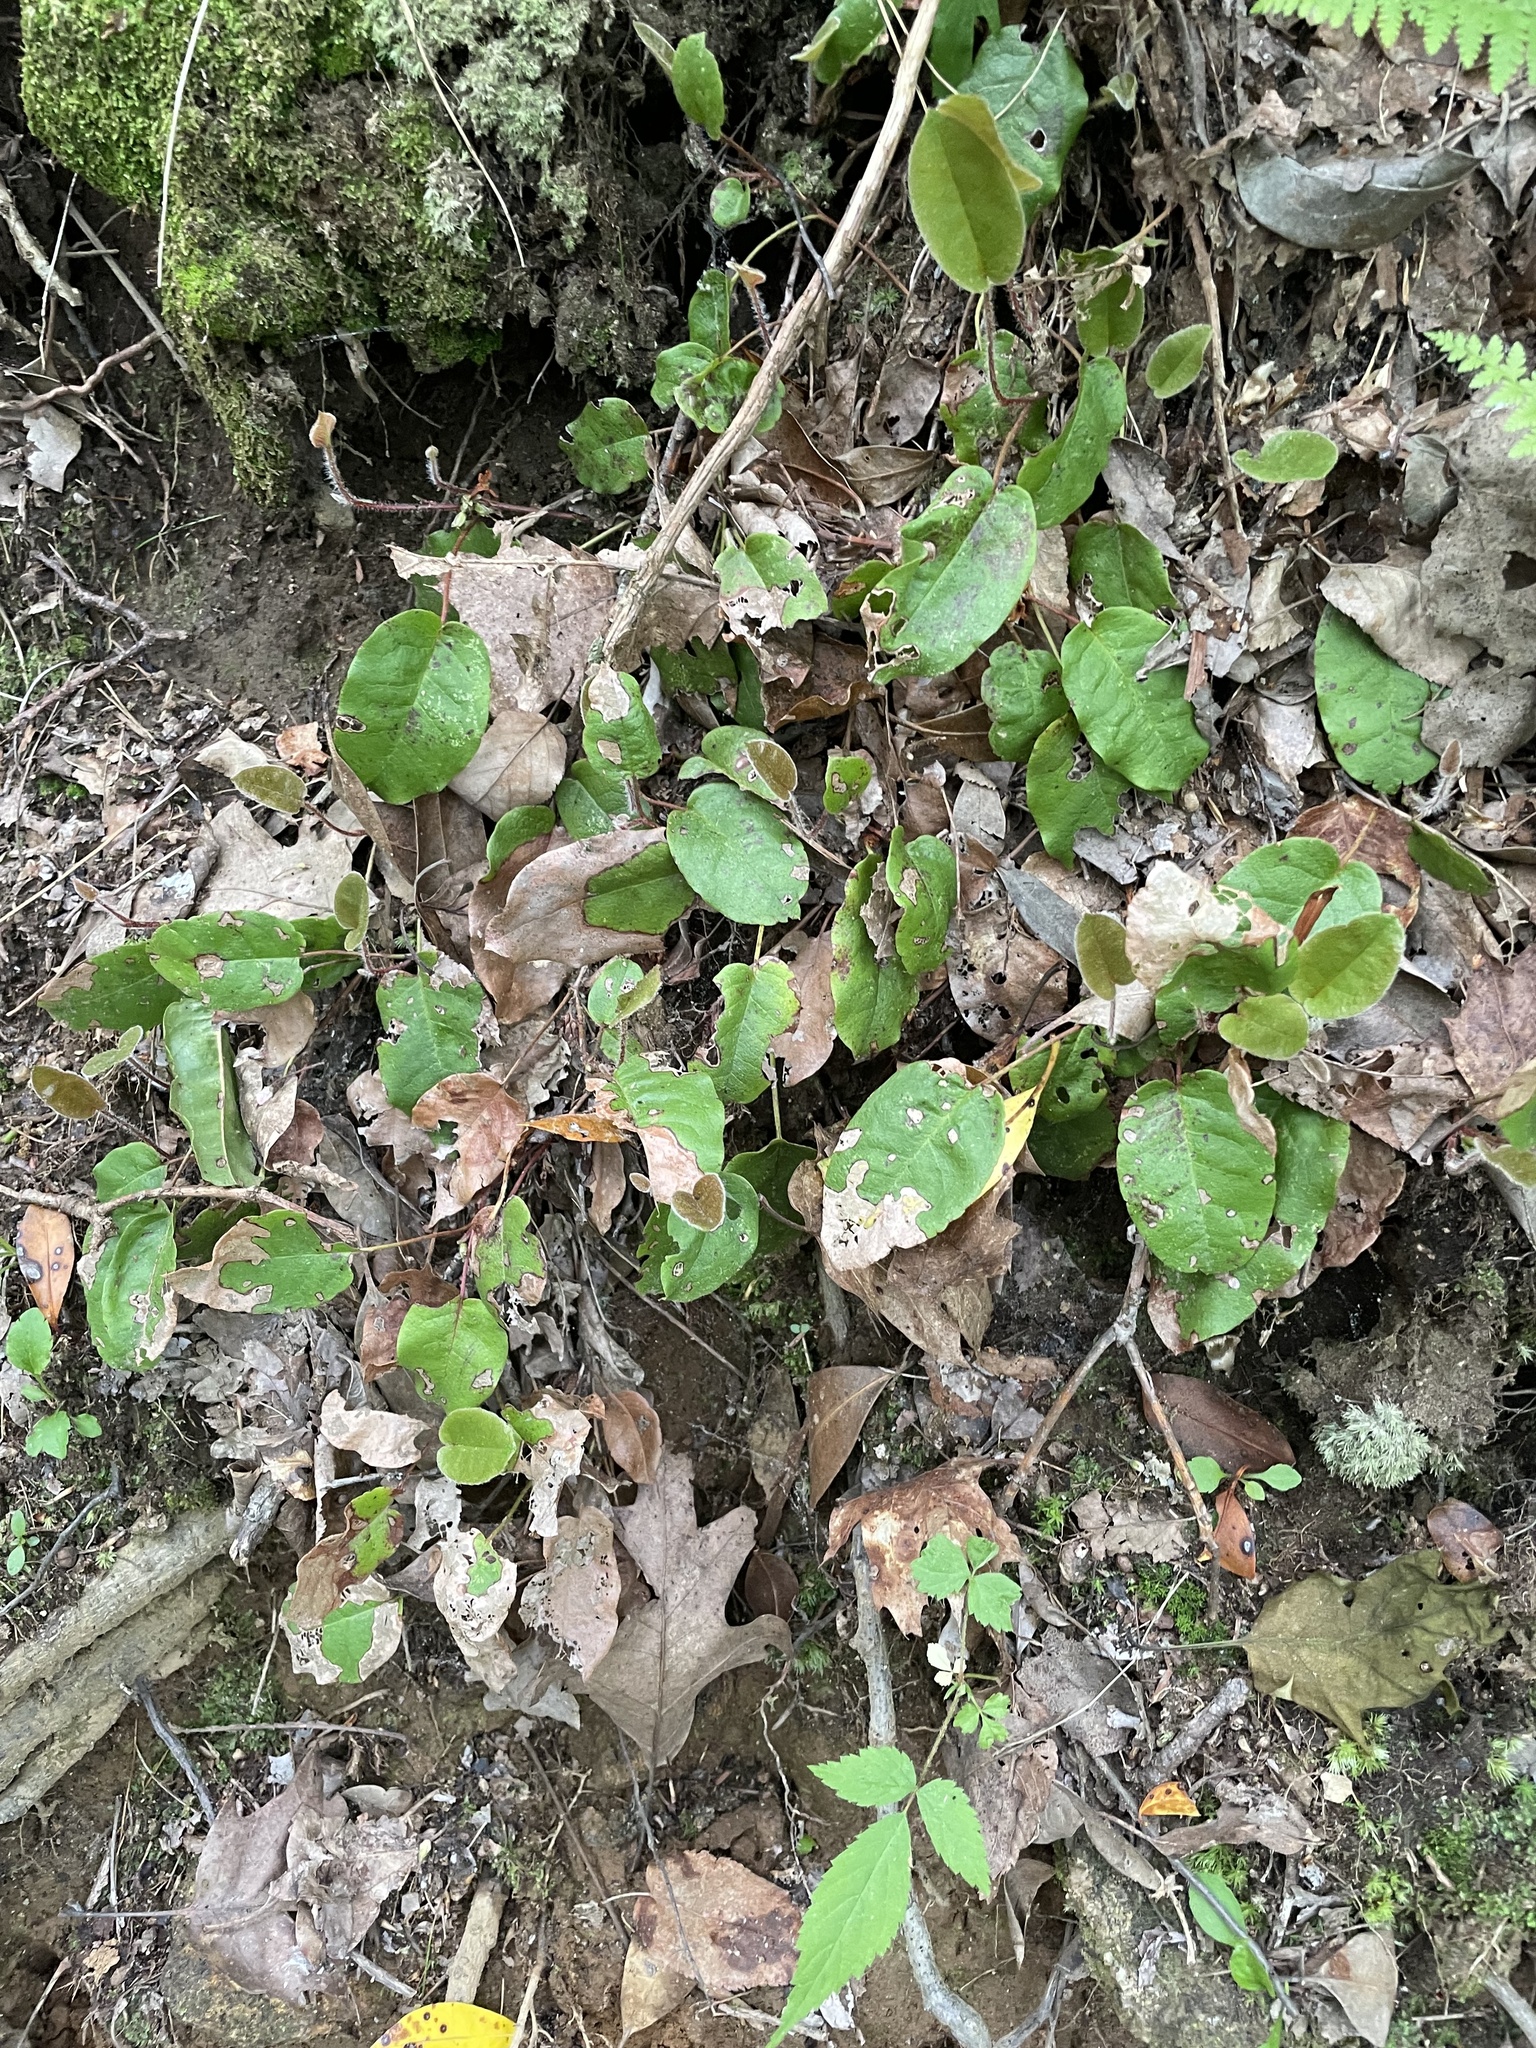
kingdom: Plantae
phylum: Tracheophyta
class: Magnoliopsida
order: Ericales
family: Ericaceae
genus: Epigaea
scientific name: Epigaea repens
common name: Gravelroot
